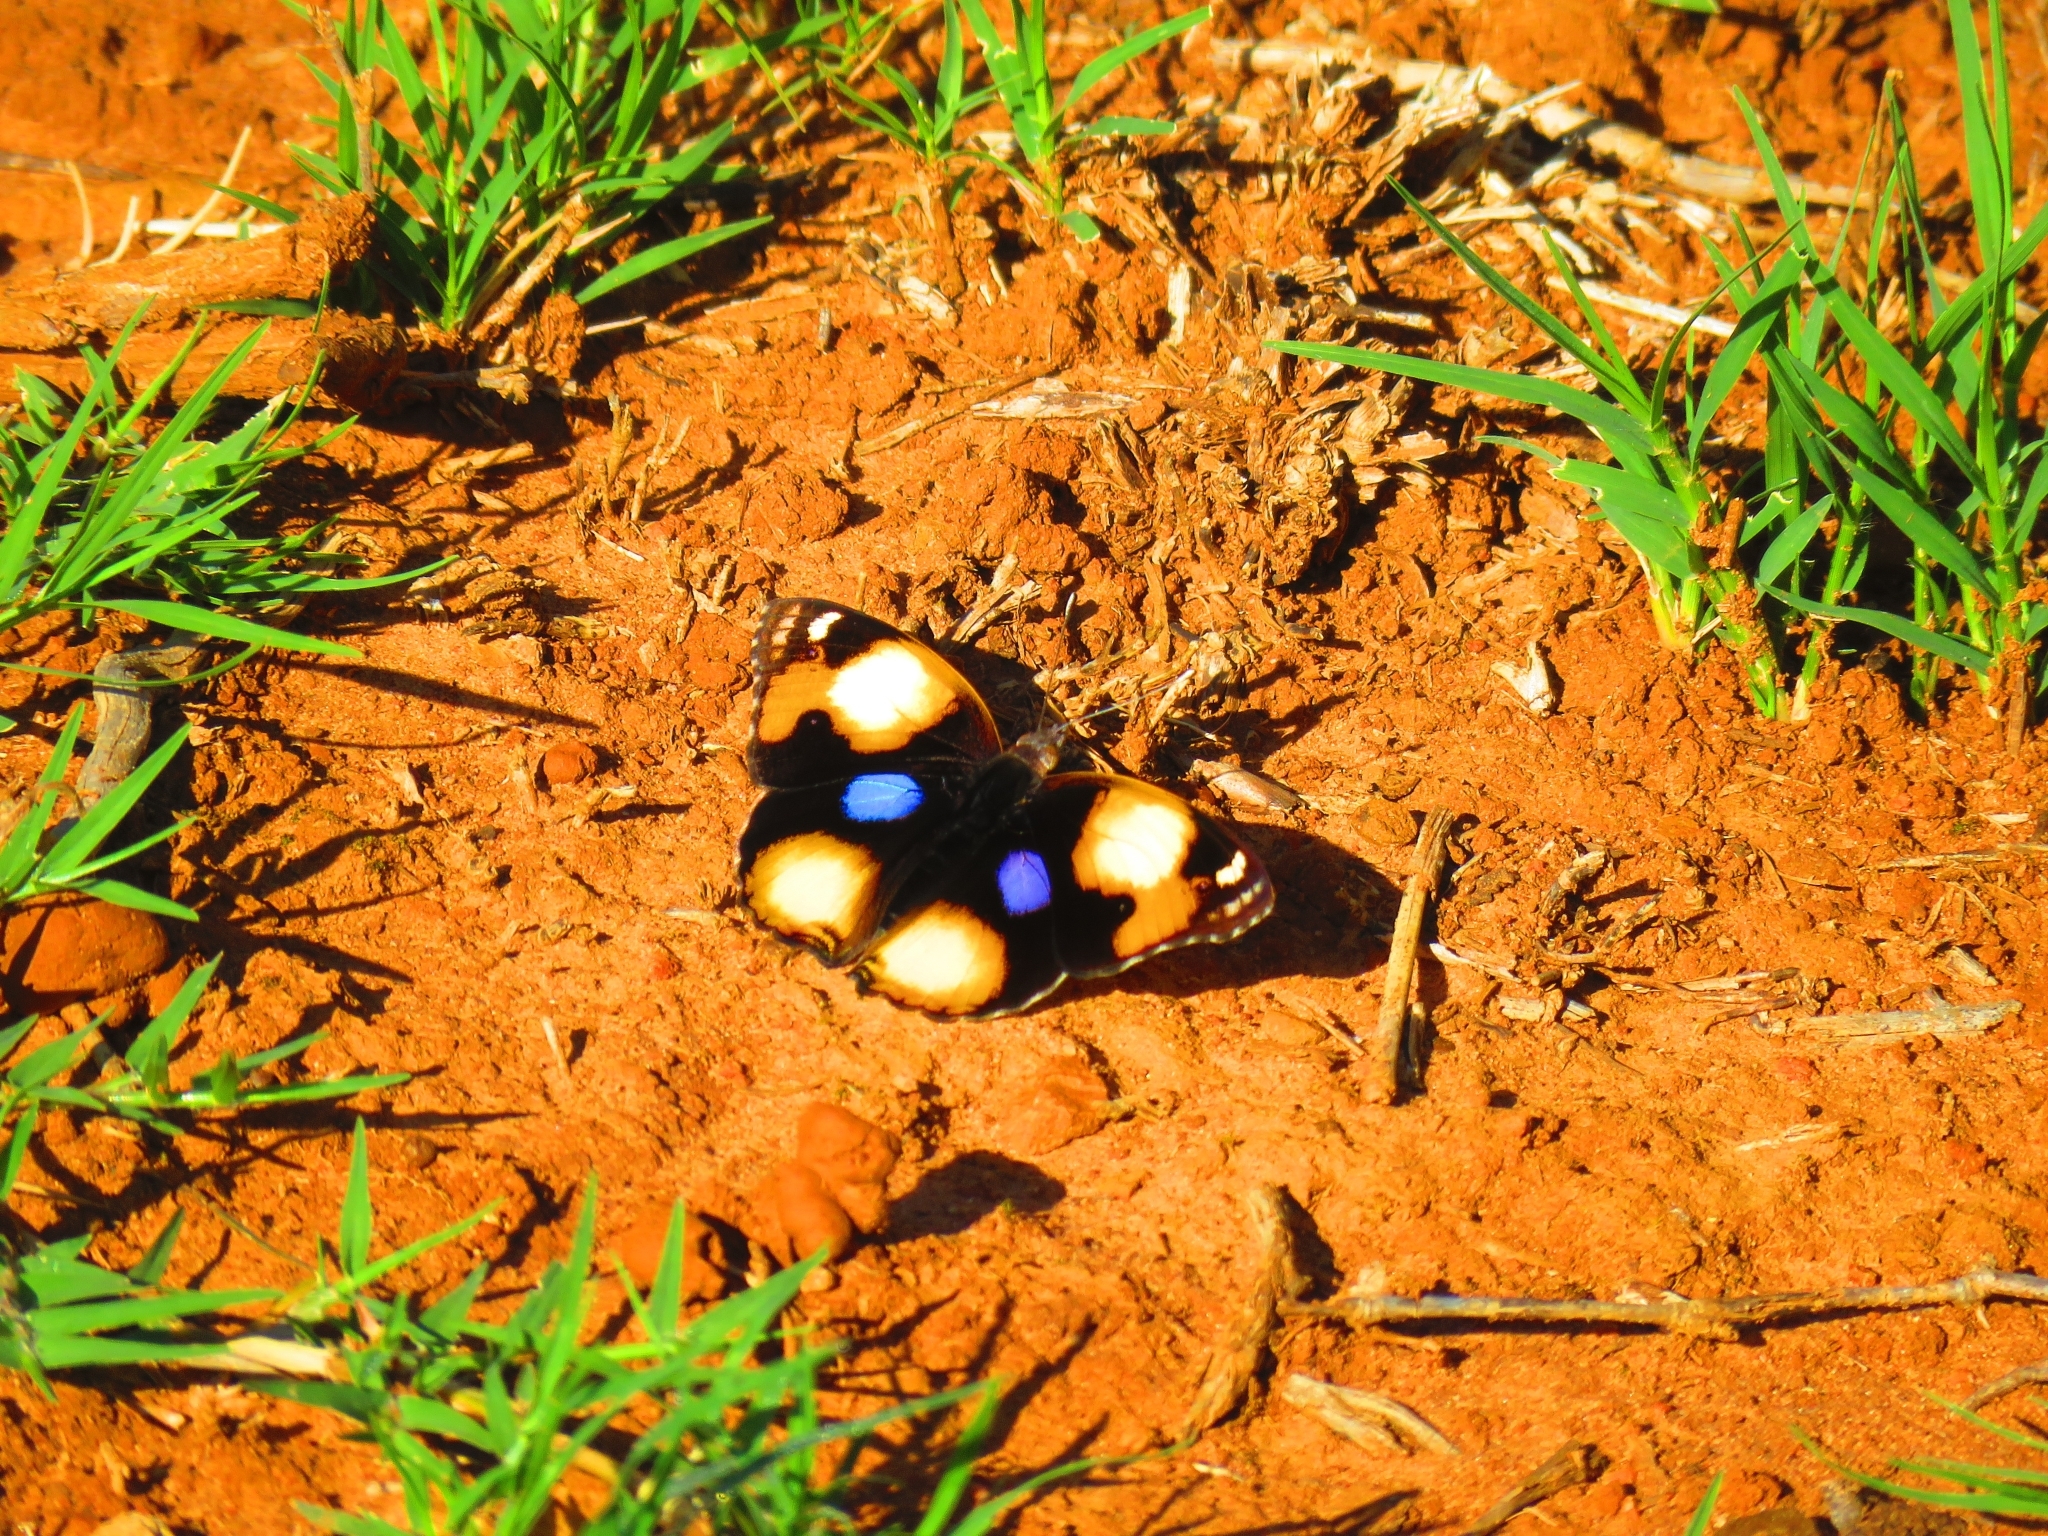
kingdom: Animalia
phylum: Arthropoda
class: Insecta
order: Lepidoptera
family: Nymphalidae
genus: Junonia
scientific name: Junonia hierta
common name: Yellow pansy
